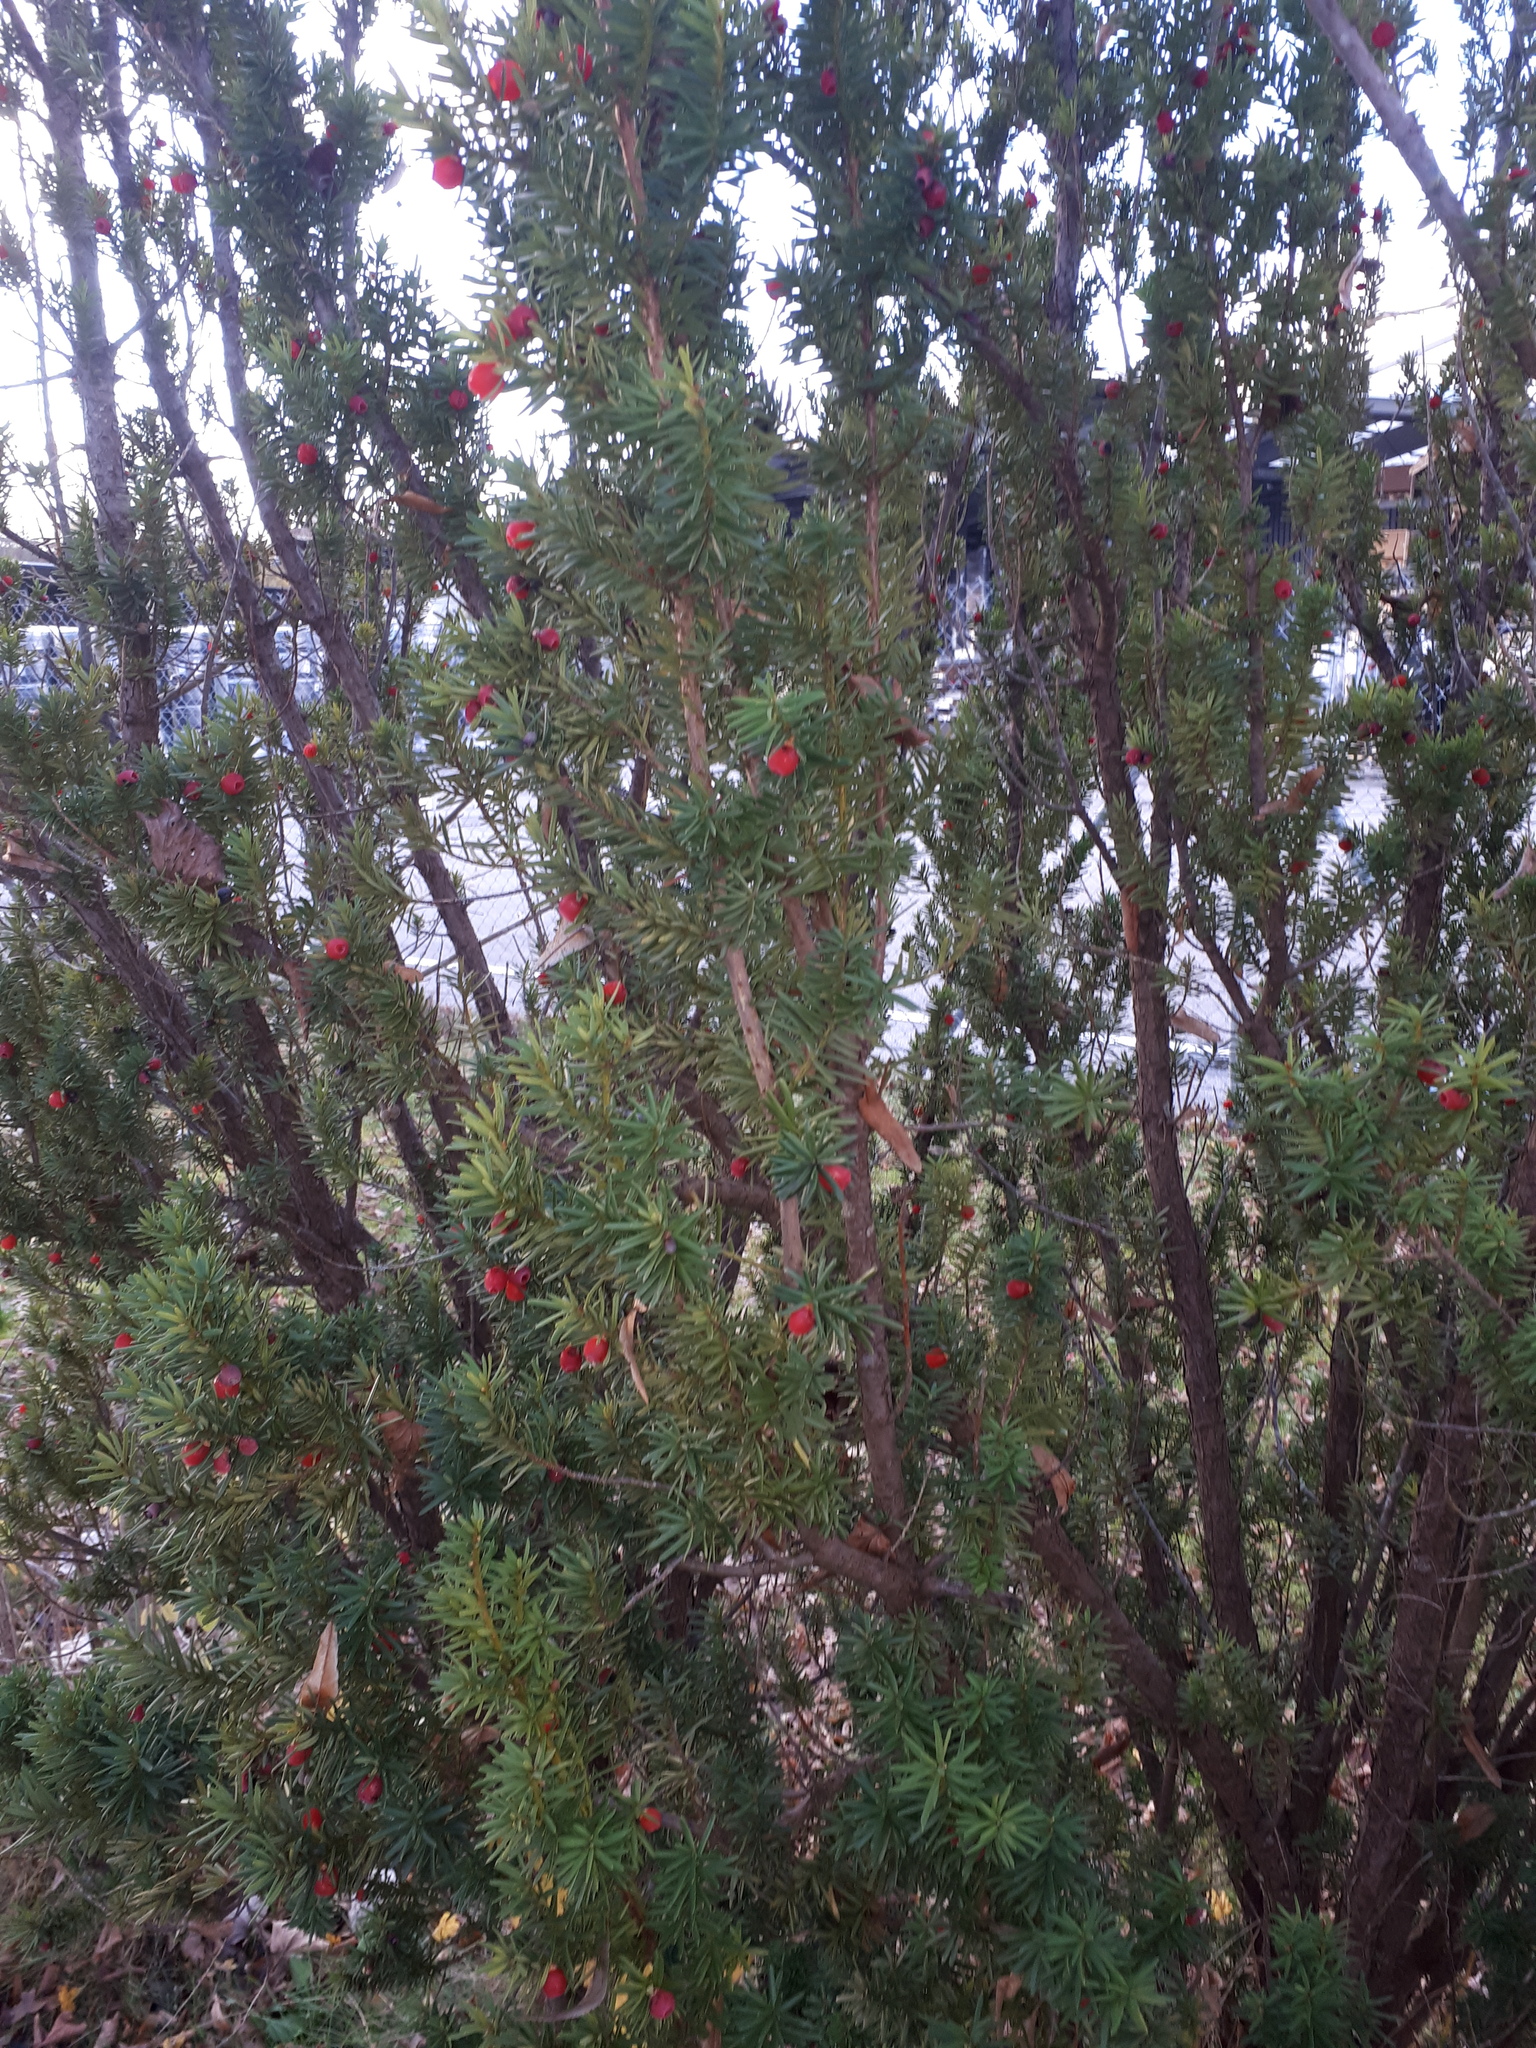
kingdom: Plantae
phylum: Tracheophyta
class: Pinopsida
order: Pinales
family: Taxaceae
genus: Taxus
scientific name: Taxus baccata
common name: Yew
